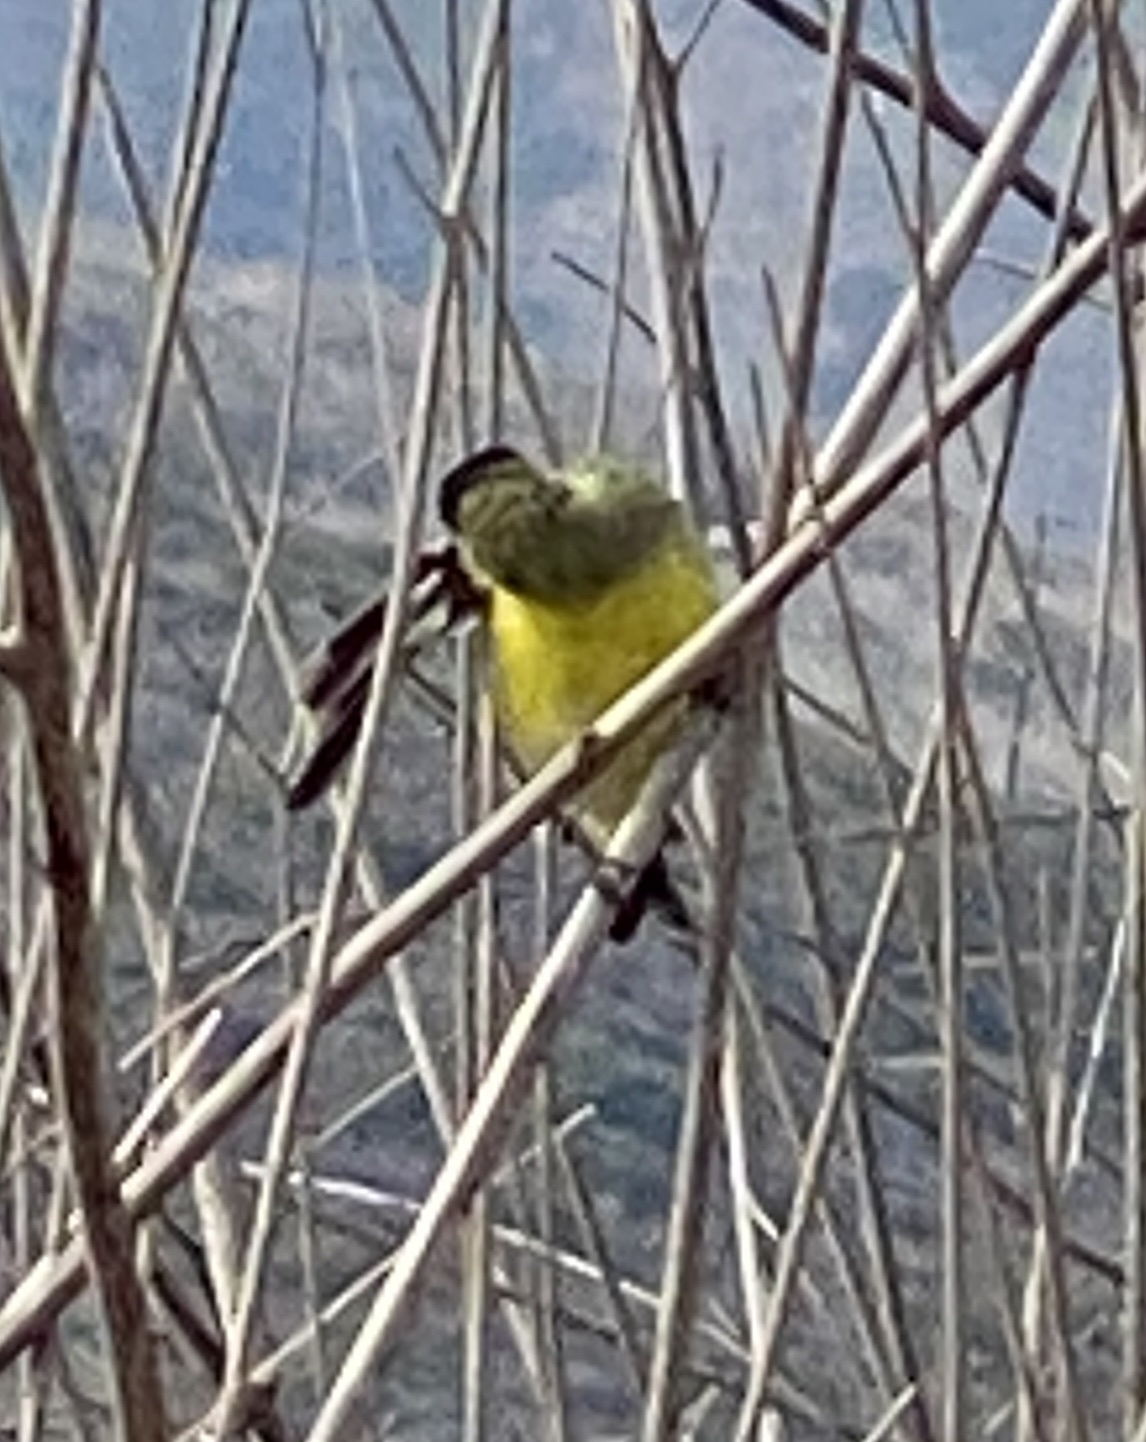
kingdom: Animalia
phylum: Chordata
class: Aves
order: Passeriformes
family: Fringillidae
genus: Spinus
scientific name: Spinus psaltria
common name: Lesser goldfinch
